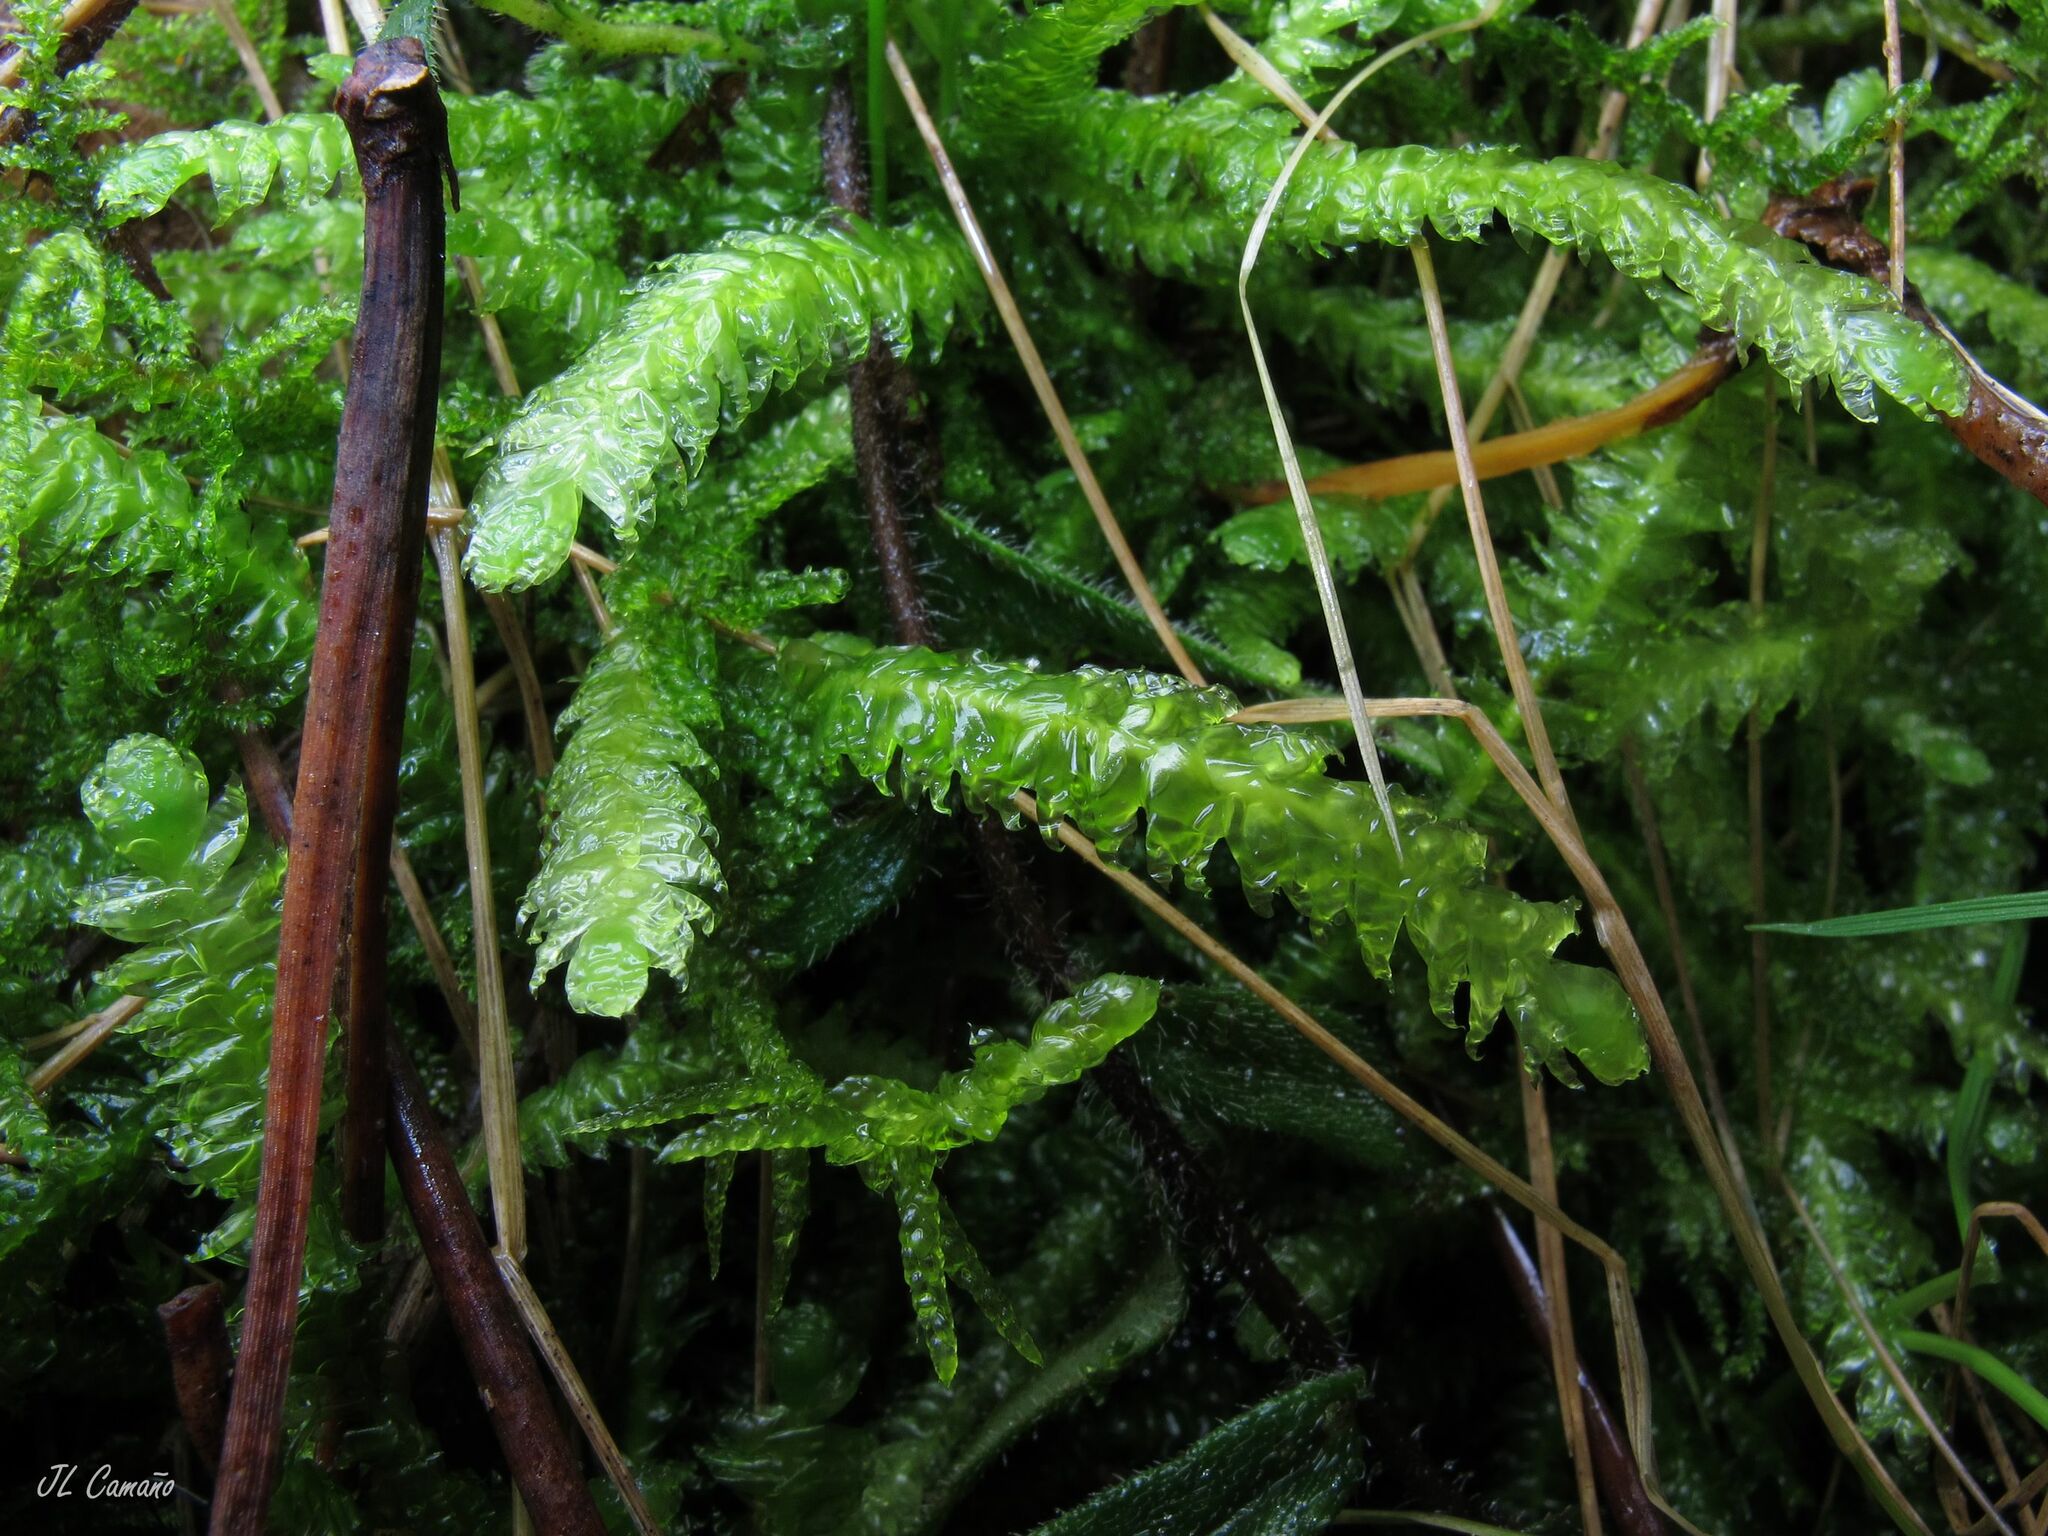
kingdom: Plantae
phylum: Bryophyta
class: Bryopsida
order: Hypnales
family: Plagiotheciaceae
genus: Plagiothecium
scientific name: Plagiothecium undulatum
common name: Waved silk-moss
